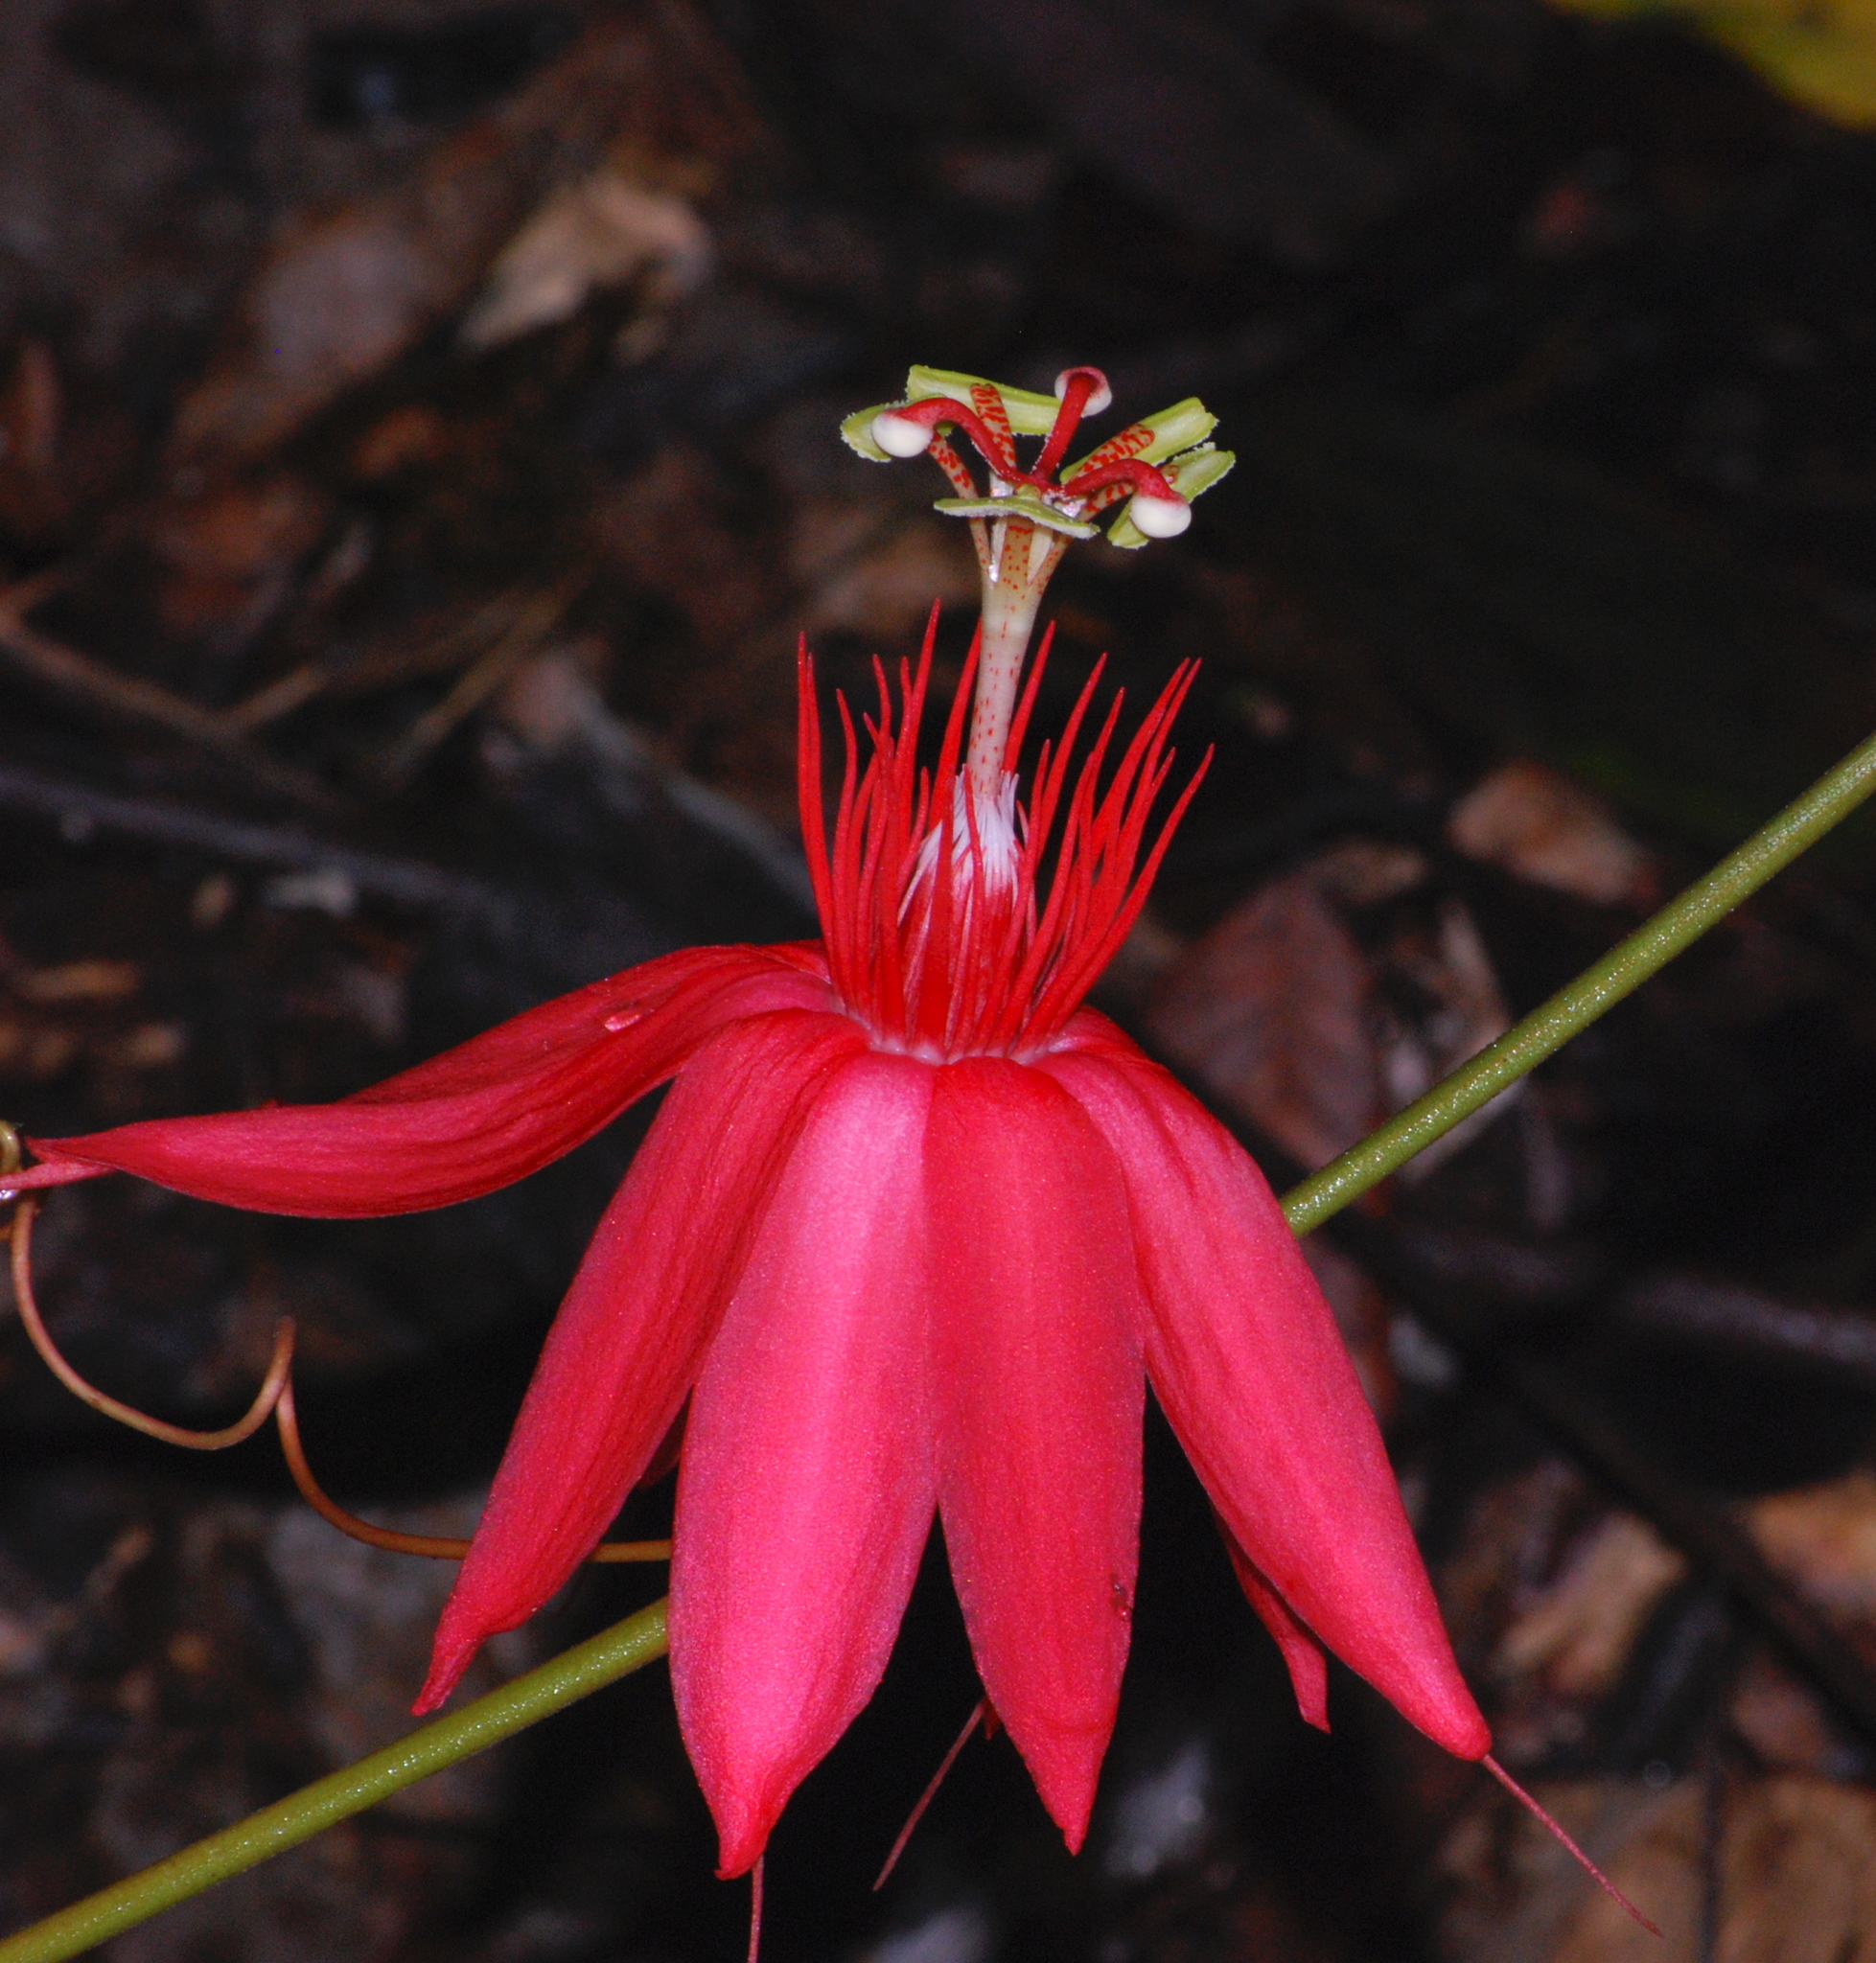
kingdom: Plantae
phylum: Tracheophyta
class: Magnoliopsida
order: Malpighiales
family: Passifloraceae
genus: Passiflora
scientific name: Passiflora vitifolia
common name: Perfumed passionflower
